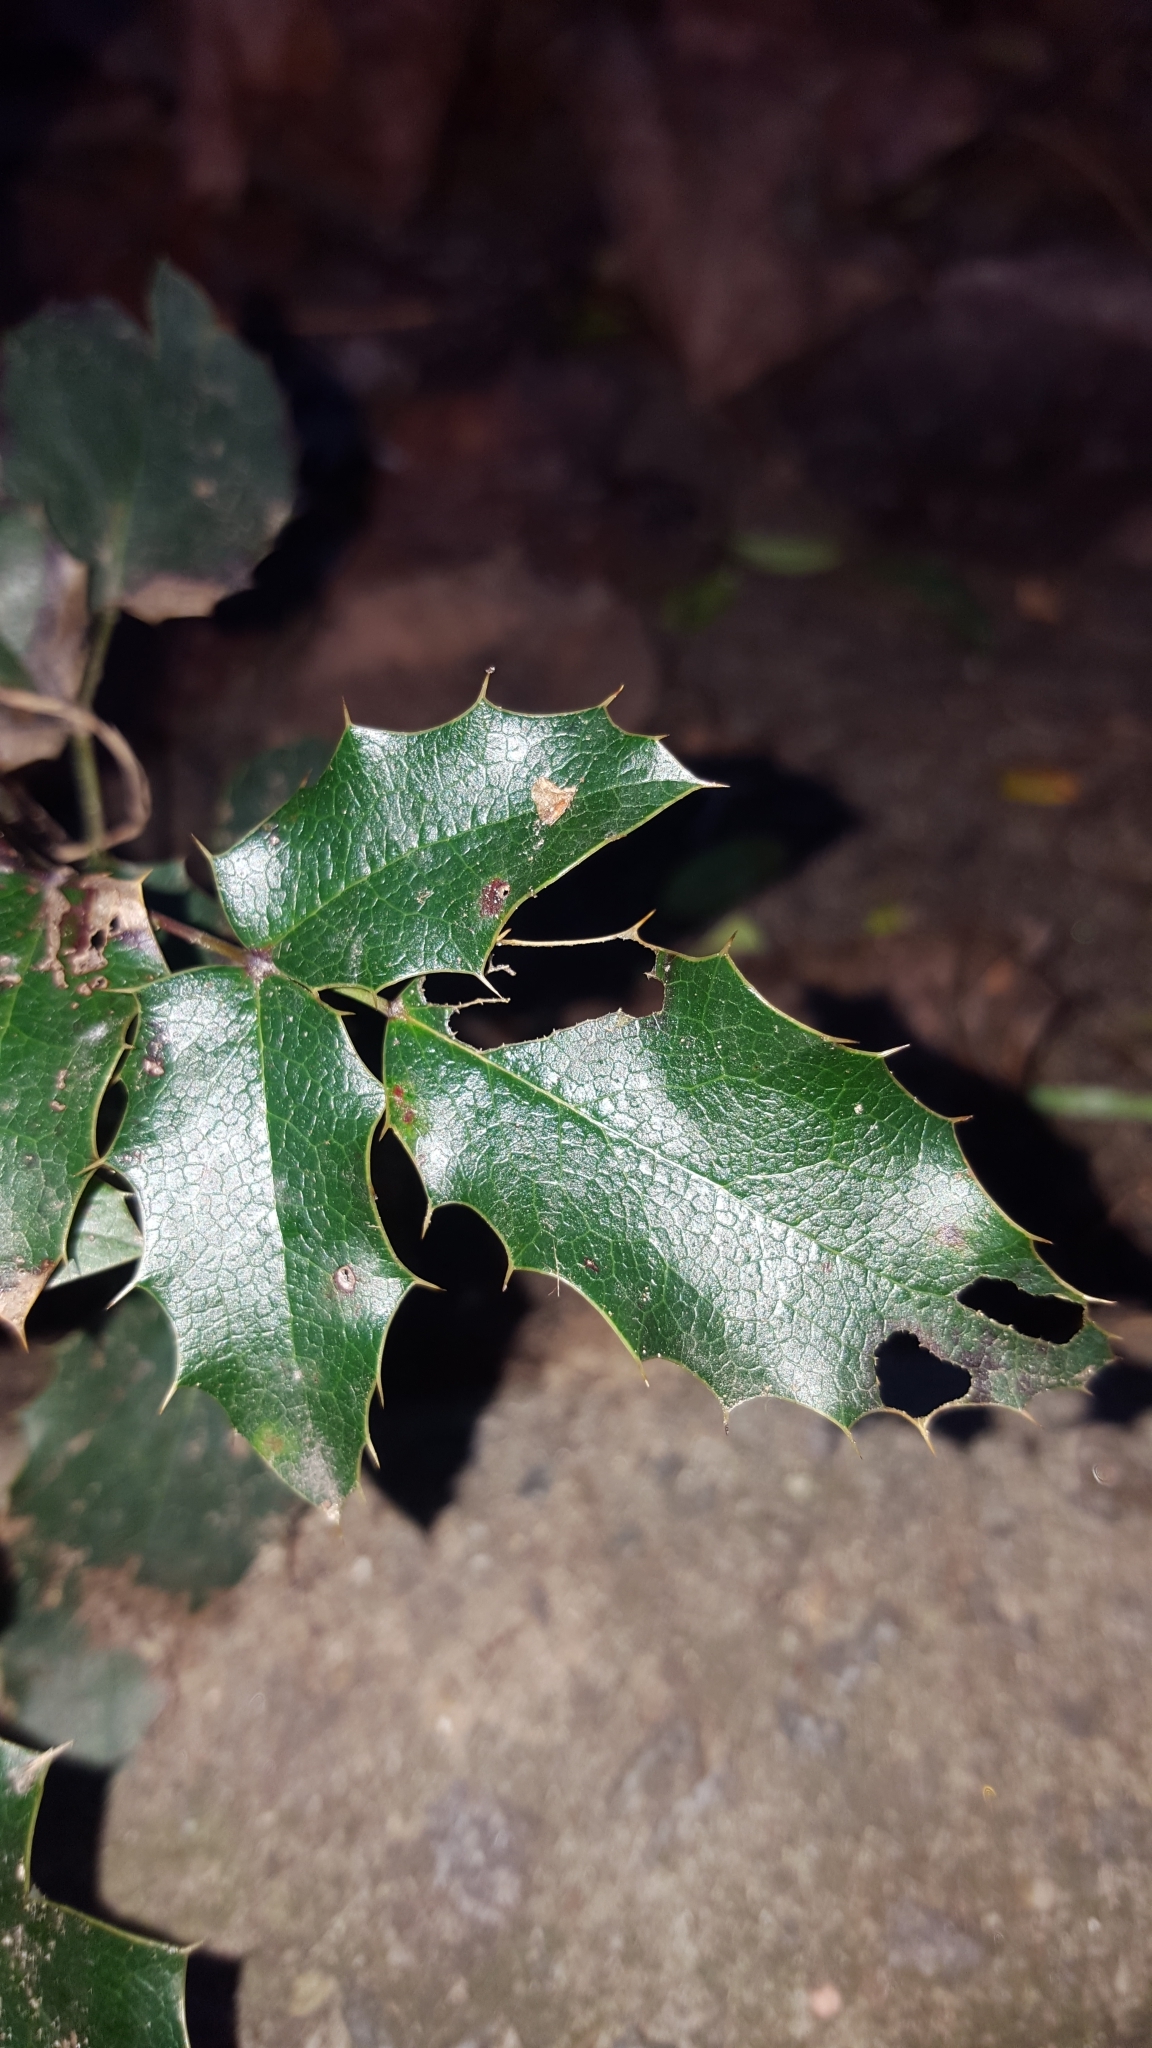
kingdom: Plantae
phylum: Tracheophyta
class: Magnoliopsida
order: Ranunculales
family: Berberidaceae
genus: Mahonia
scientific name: Mahonia aquifolium
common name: Oregon-grape
